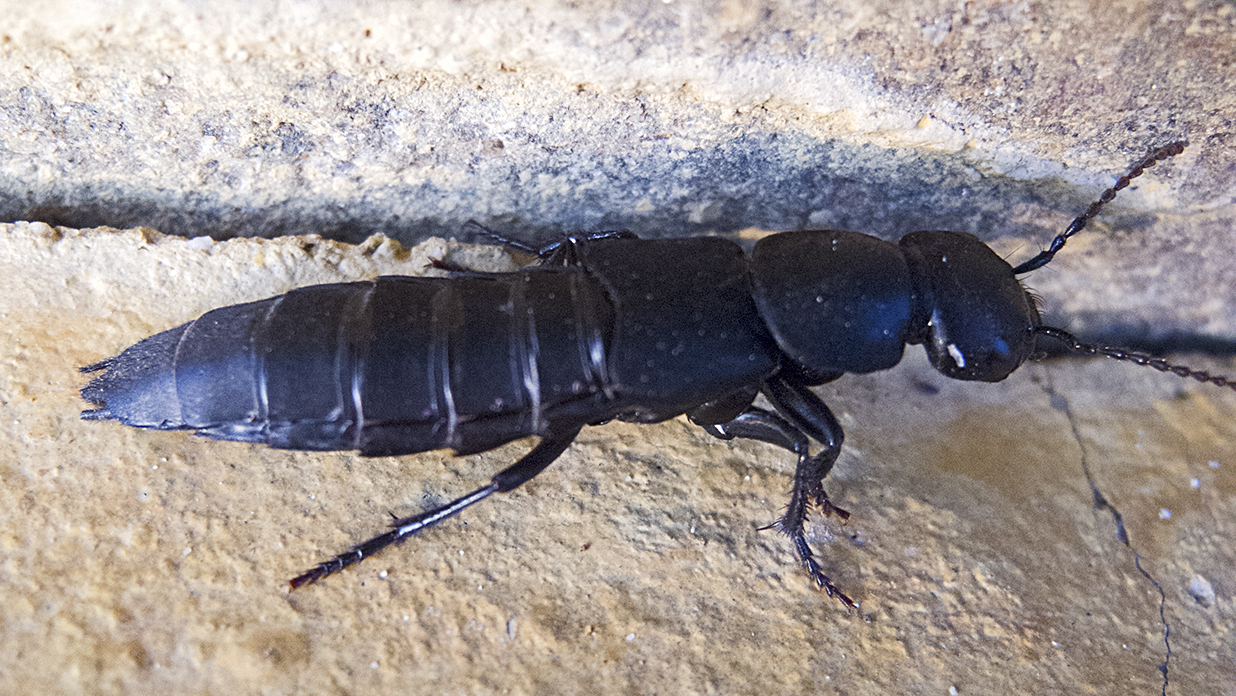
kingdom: Animalia
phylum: Arthropoda
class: Insecta
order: Coleoptera
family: Staphylinidae
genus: Ocypus
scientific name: Ocypus olens
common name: Devil's coach-horse
